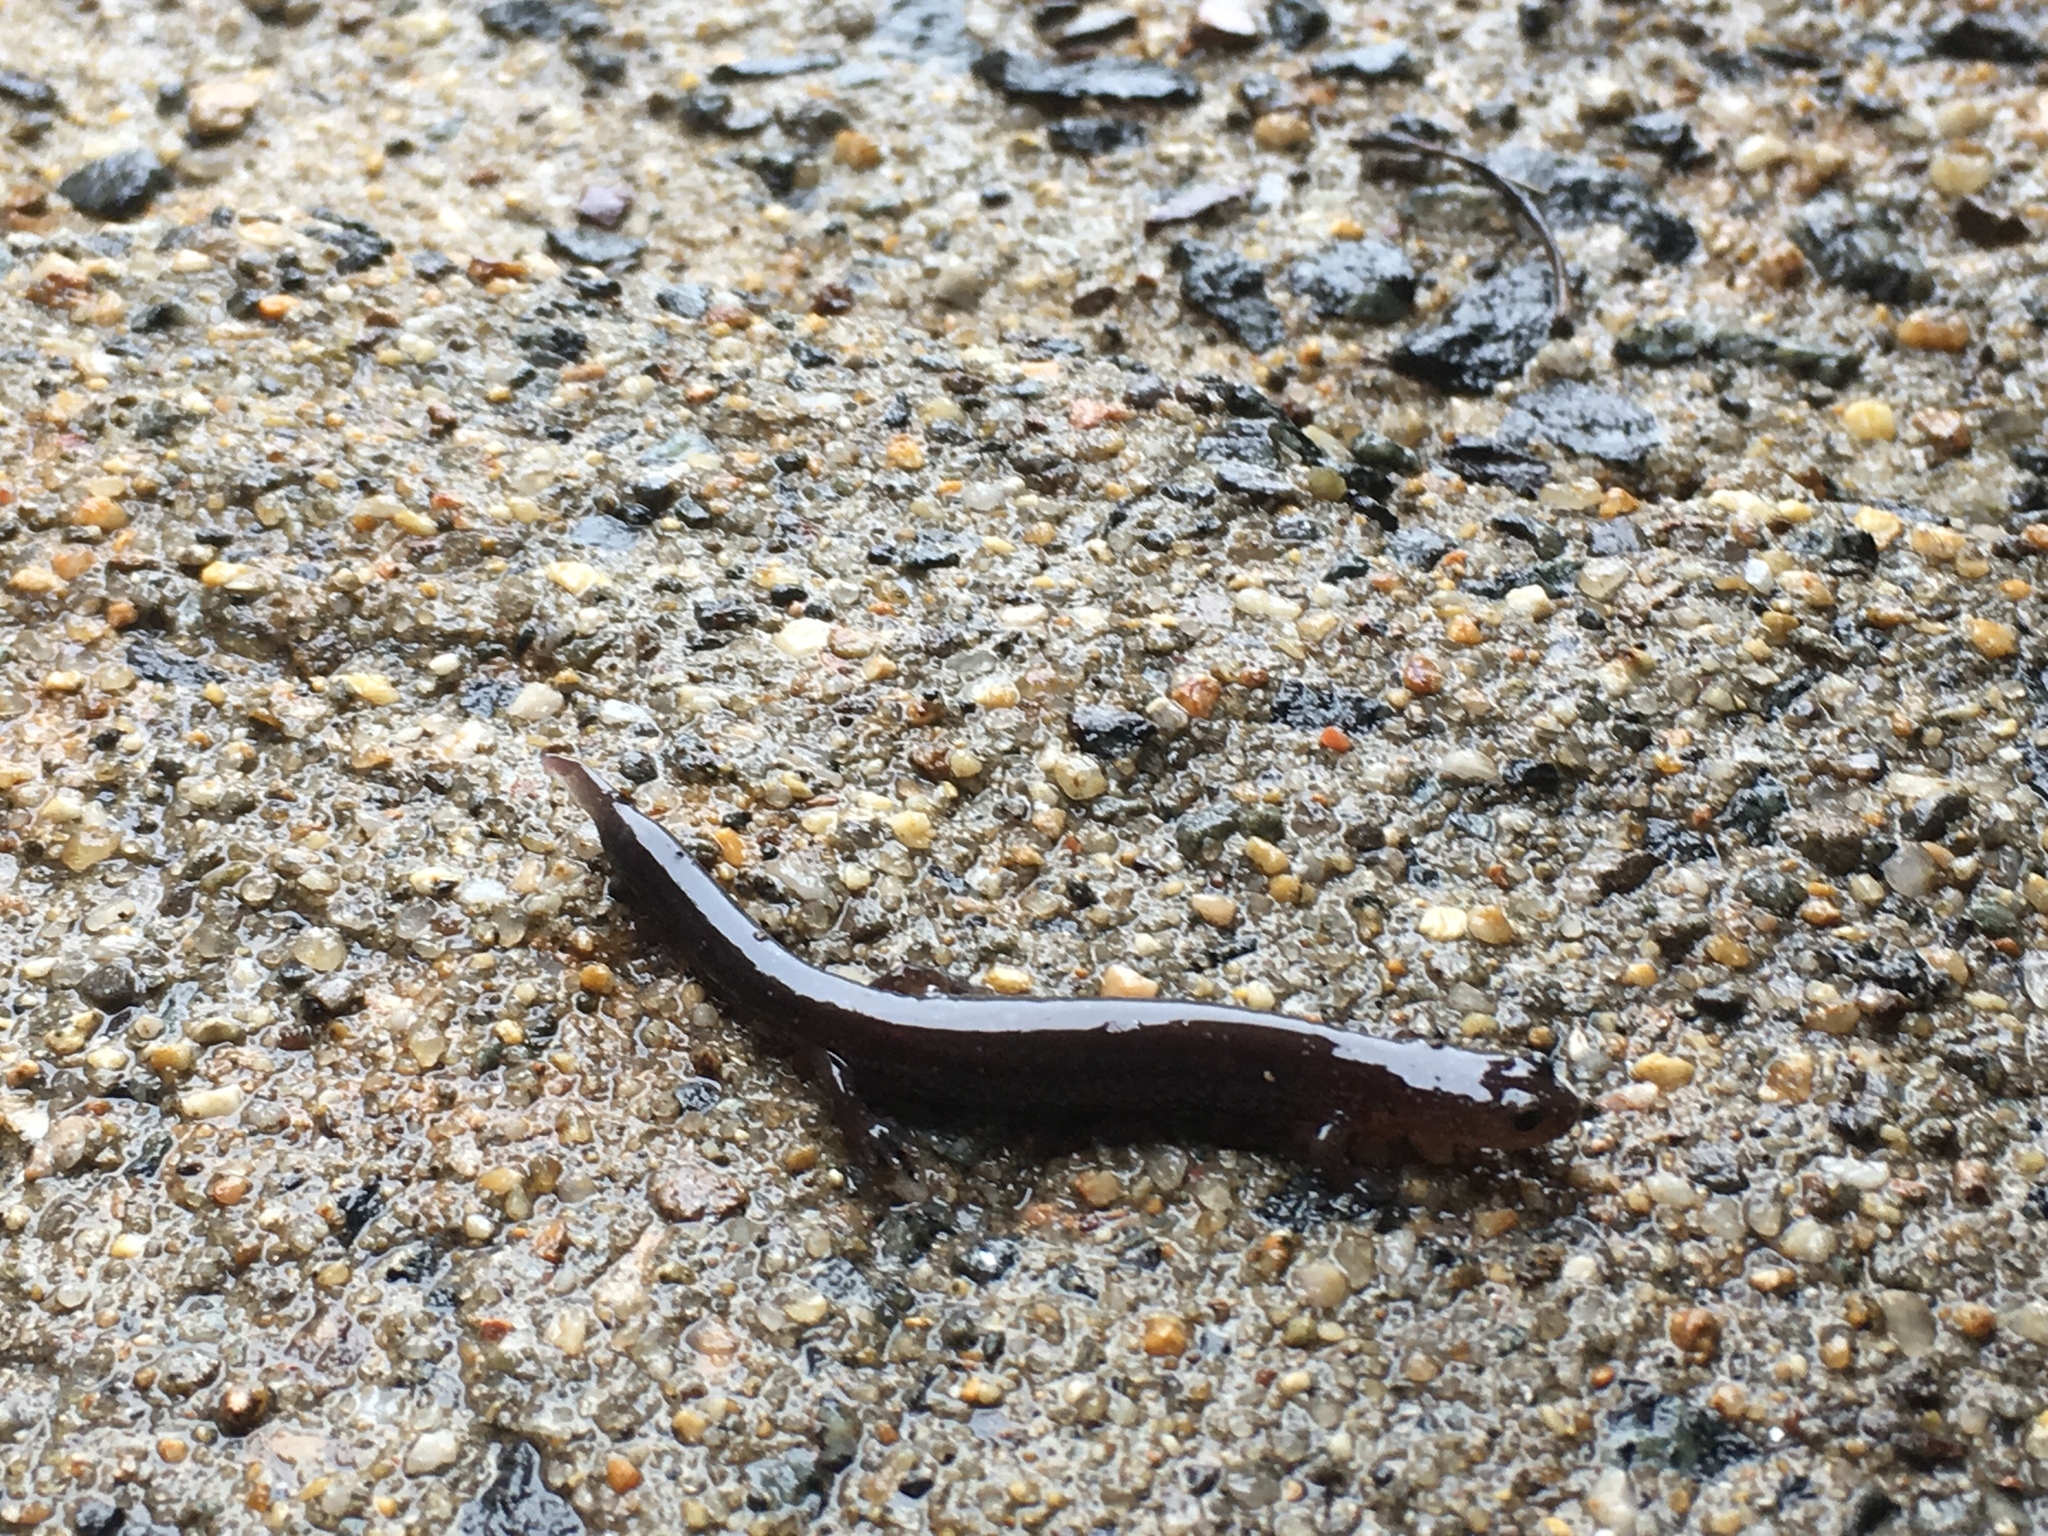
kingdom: Animalia
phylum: Chordata
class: Amphibia
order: Caudata
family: Plethodontidae
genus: Plethodon
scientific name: Plethodon cinereus
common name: Redback salamander
